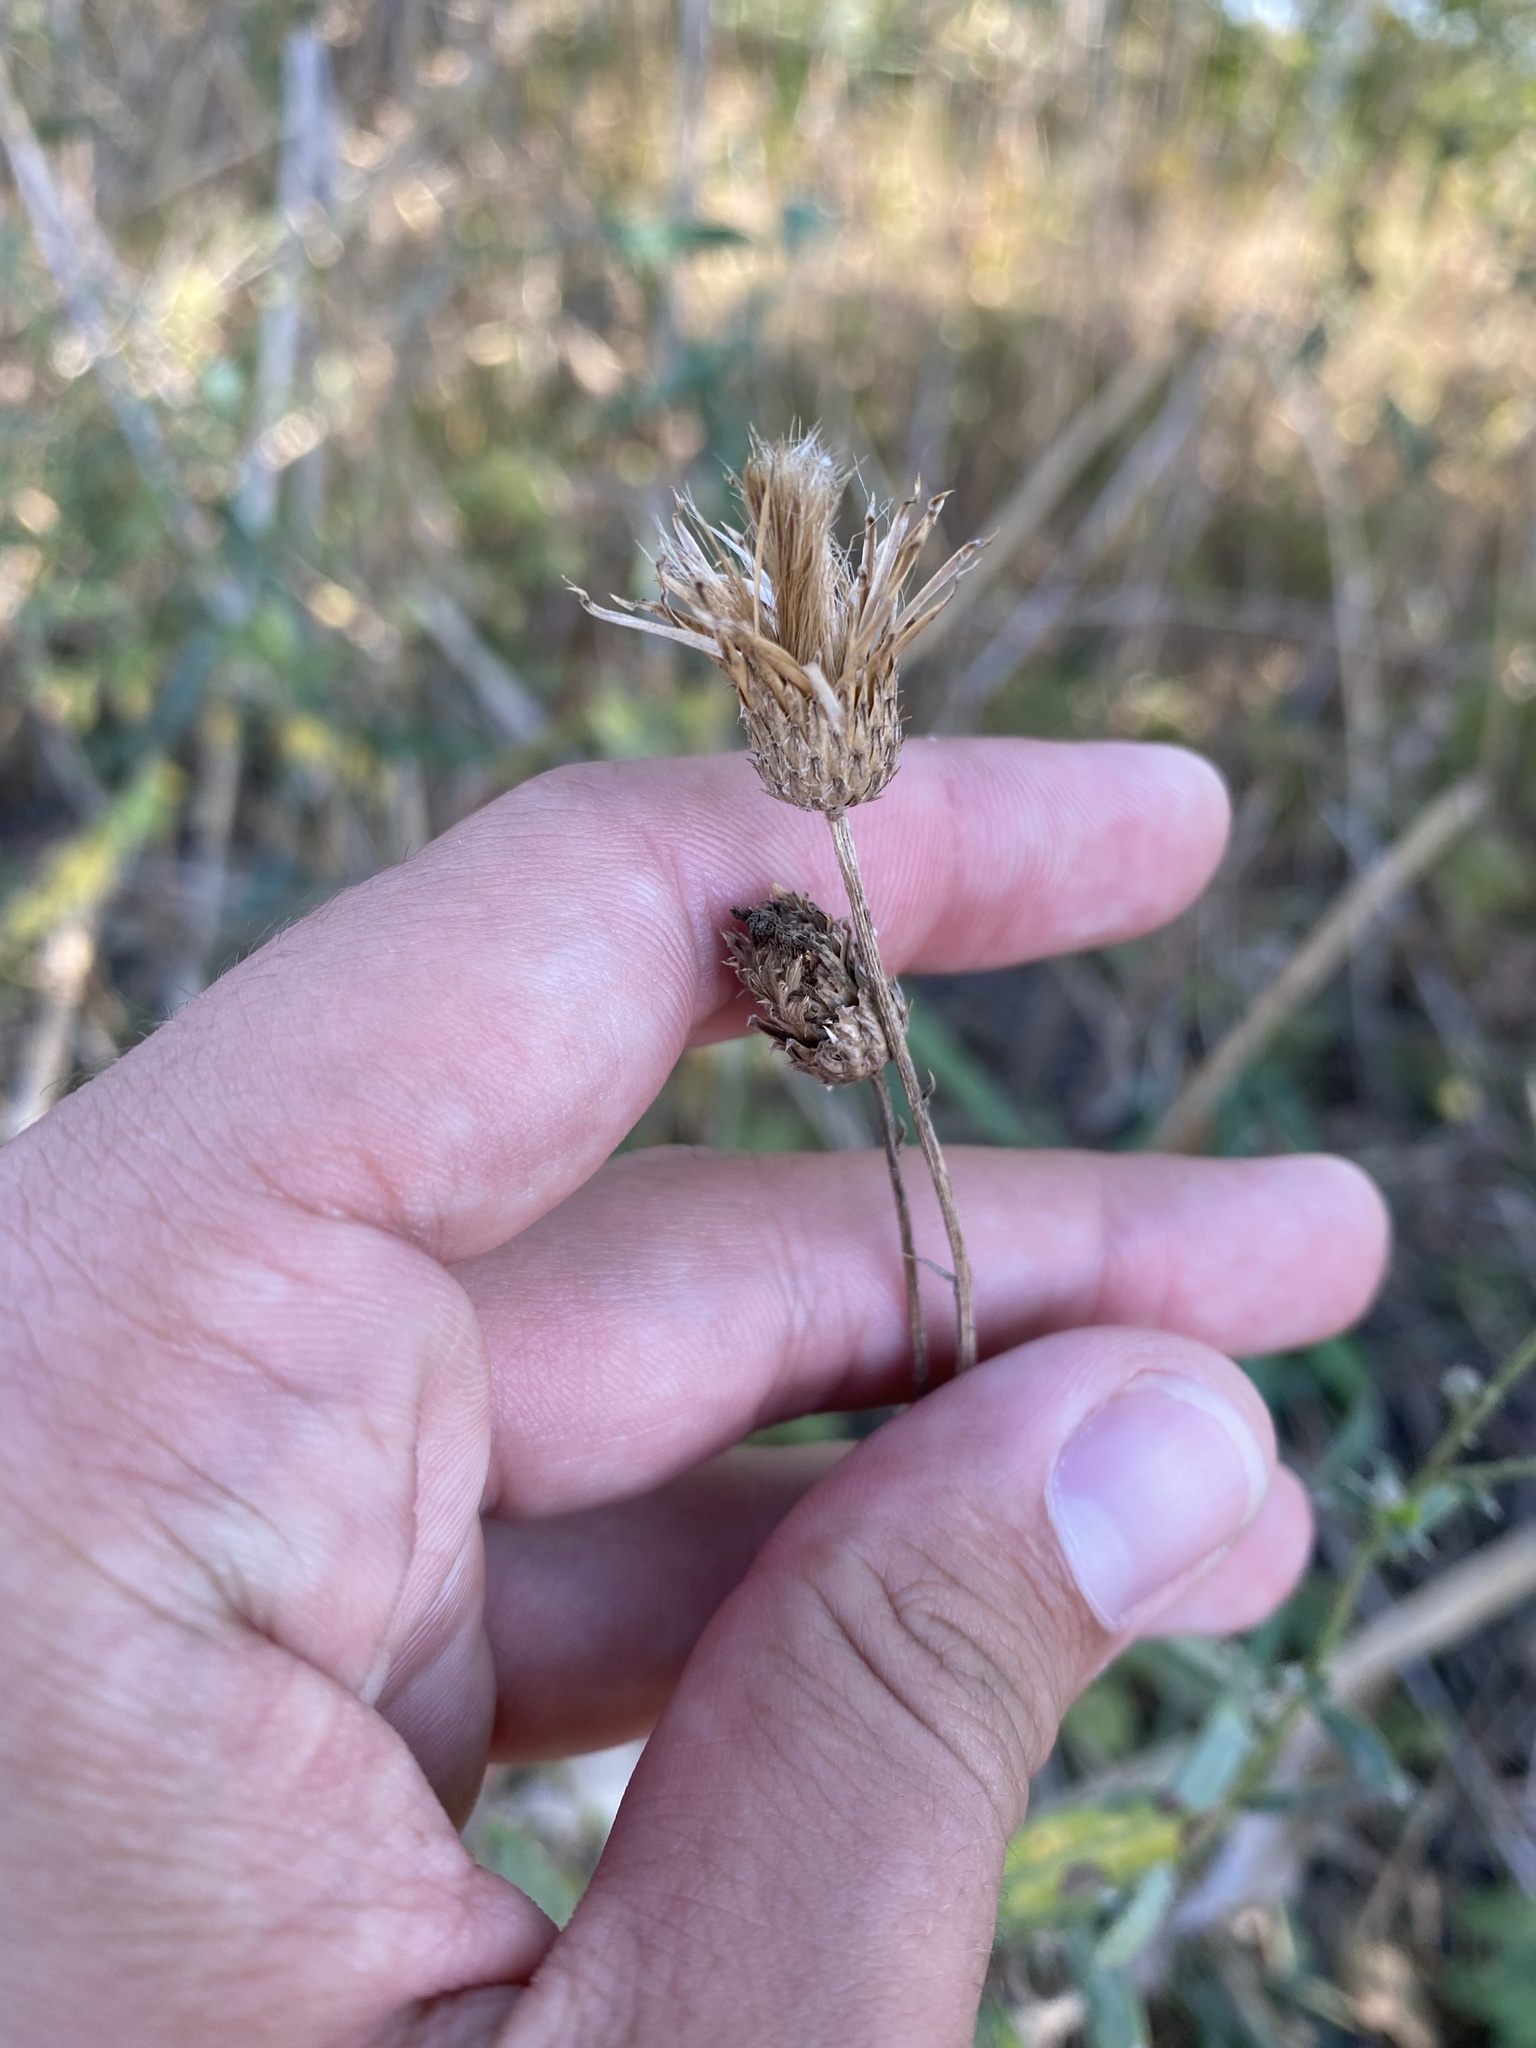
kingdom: Plantae
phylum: Tracheophyta
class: Magnoliopsida
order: Asterales
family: Asteraceae
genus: Cirsium
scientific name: Cirsium arvense
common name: Creeping thistle
